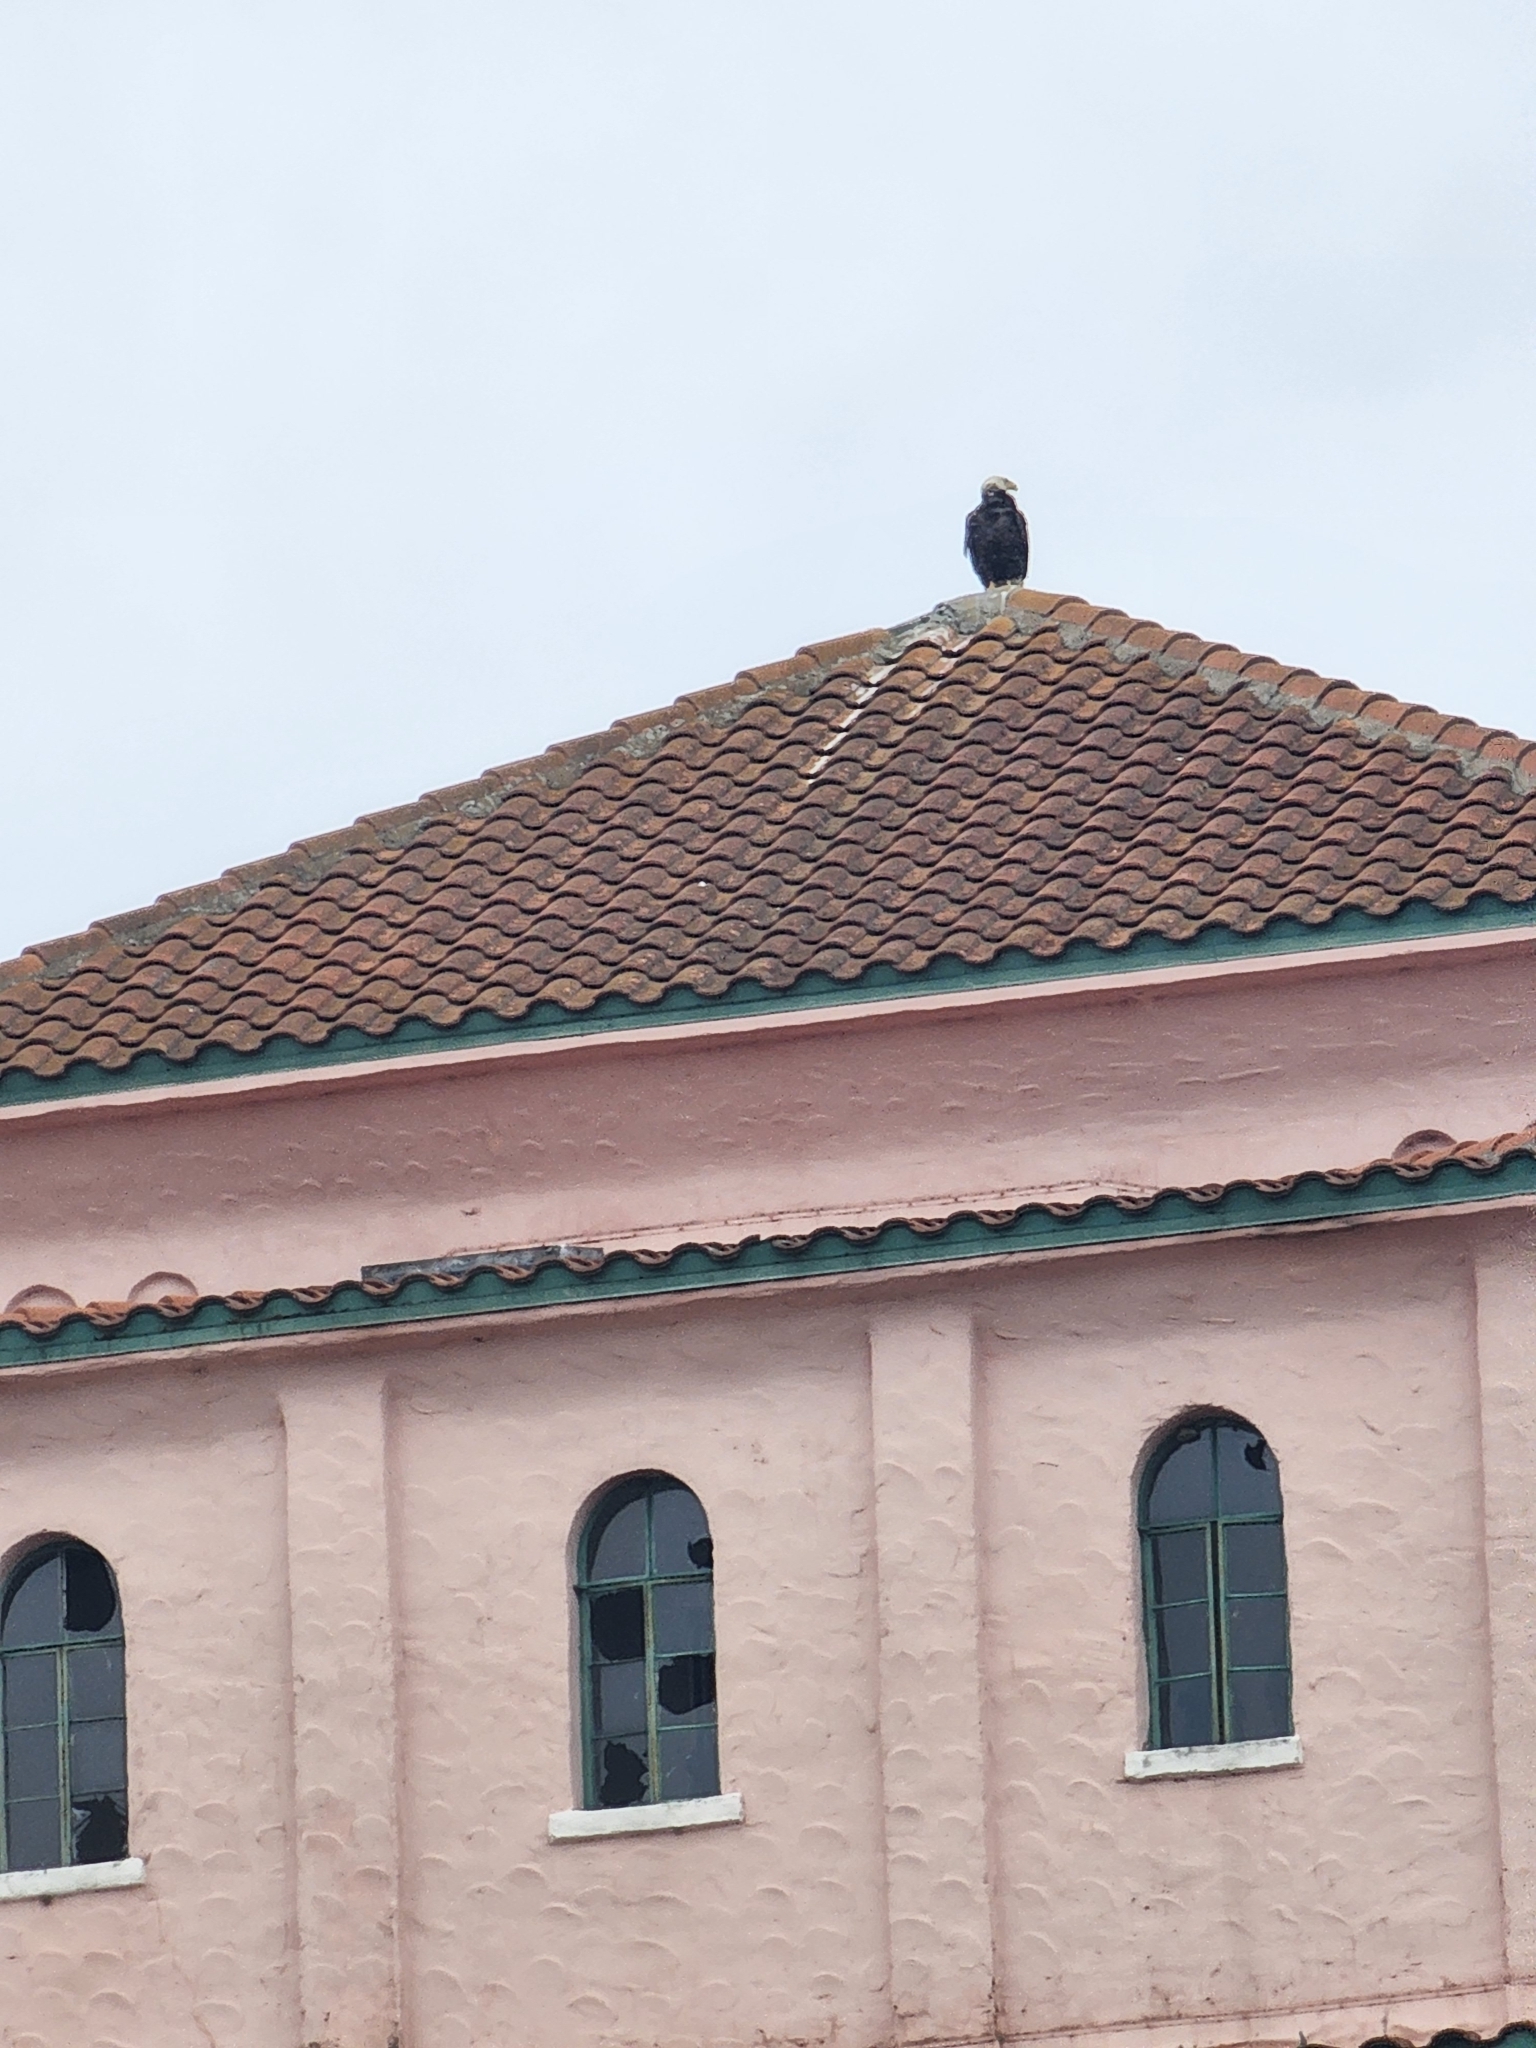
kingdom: Animalia
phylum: Chordata
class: Aves
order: Accipitriformes
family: Accipitridae
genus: Haliaeetus
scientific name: Haliaeetus leucocephalus
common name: Bald eagle
